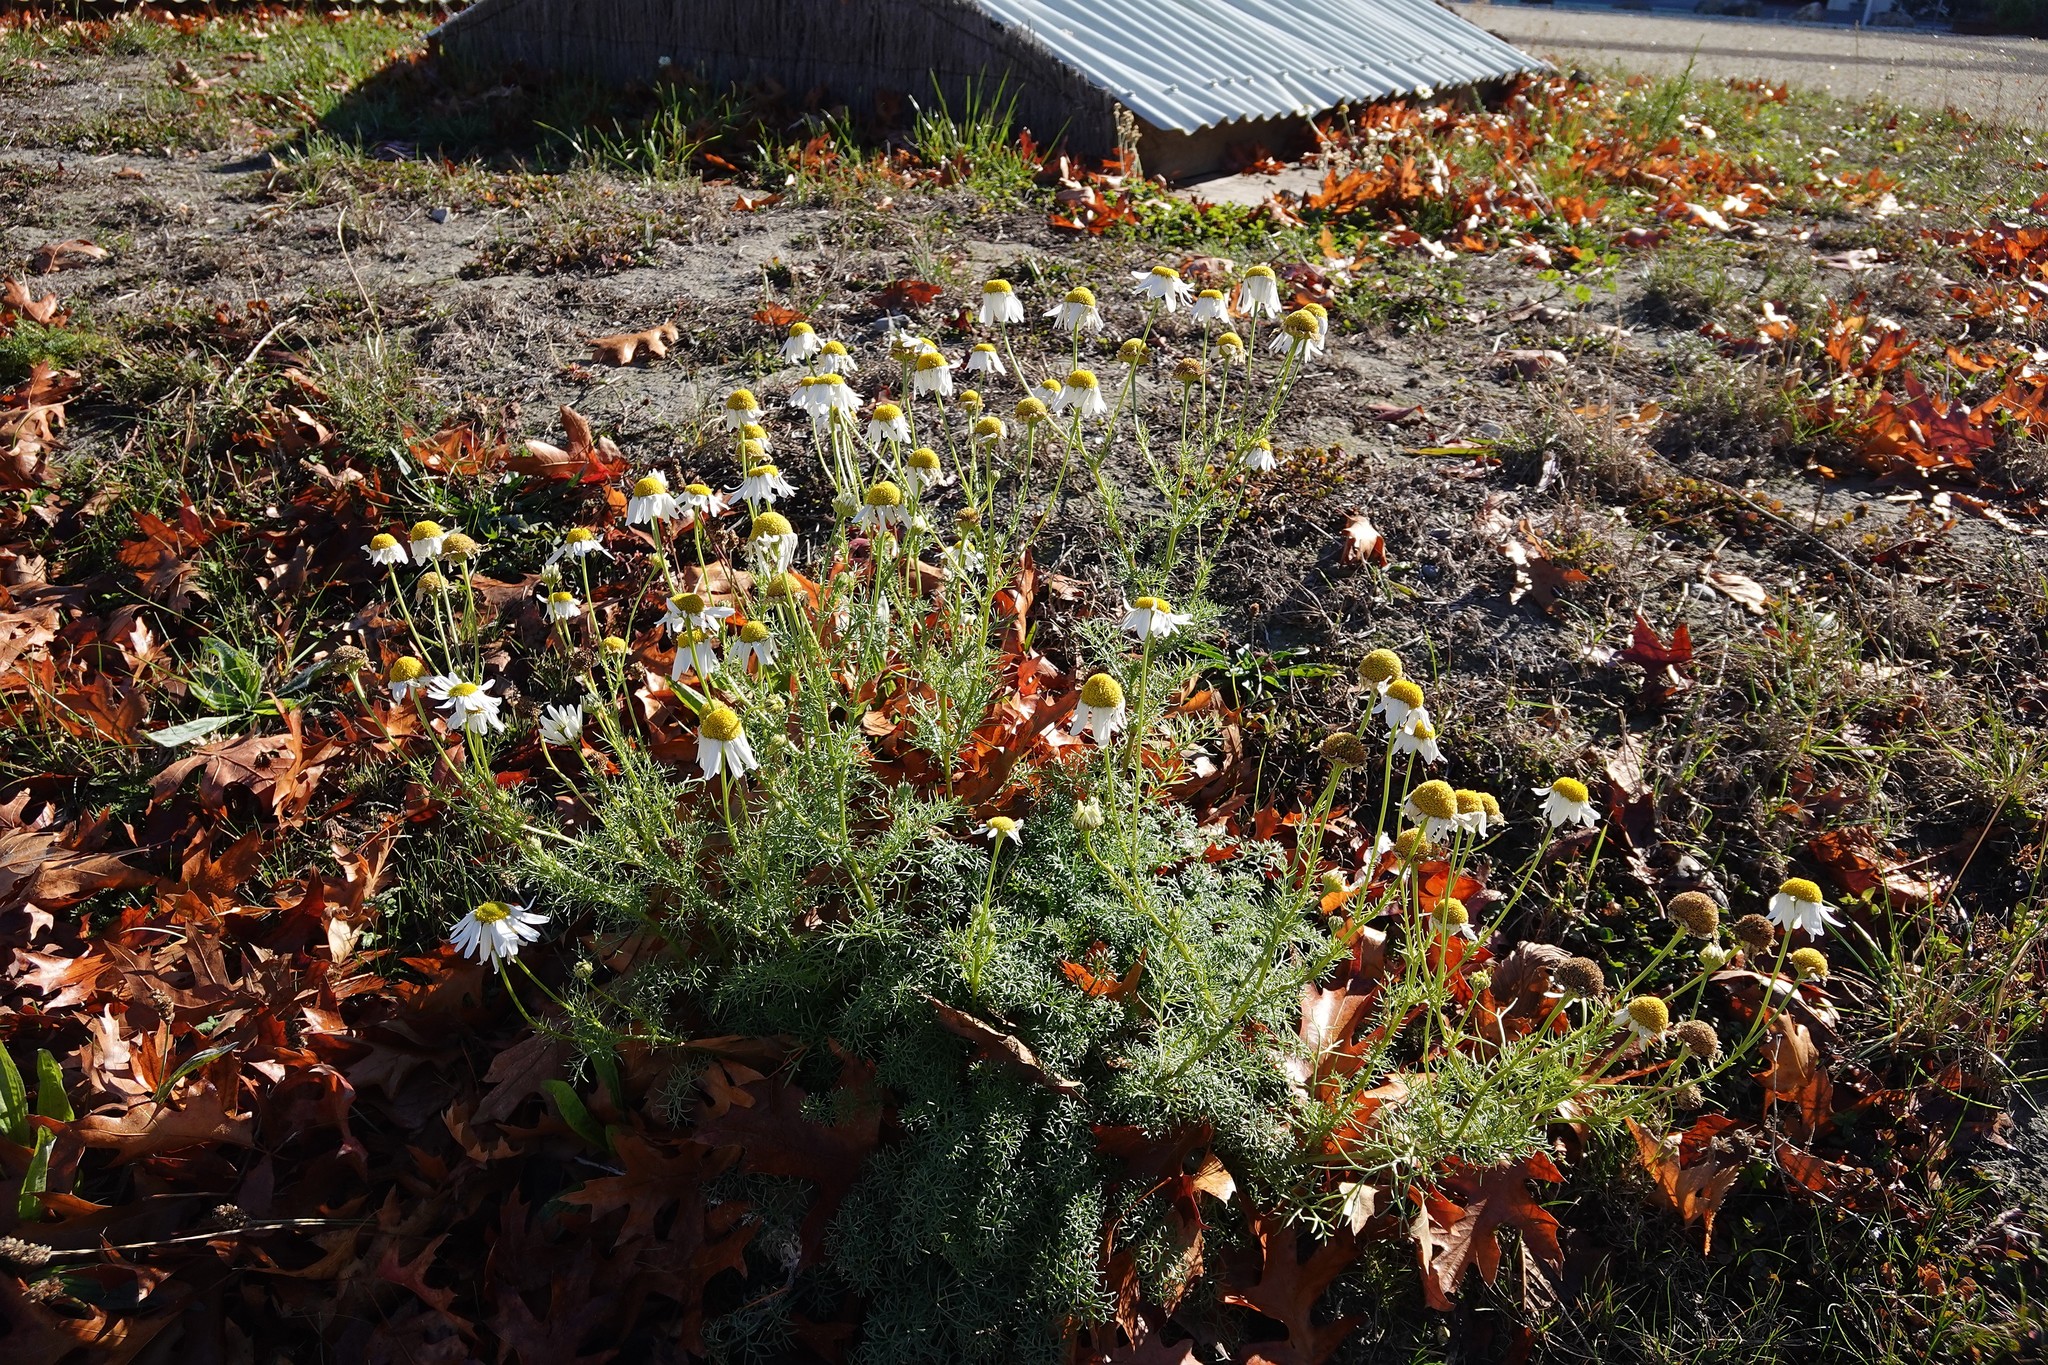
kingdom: Plantae
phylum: Tracheophyta
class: Magnoliopsida
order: Asterales
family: Asteraceae
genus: Tripleurospermum
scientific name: Tripleurospermum inodorum
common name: Scentless mayweed
